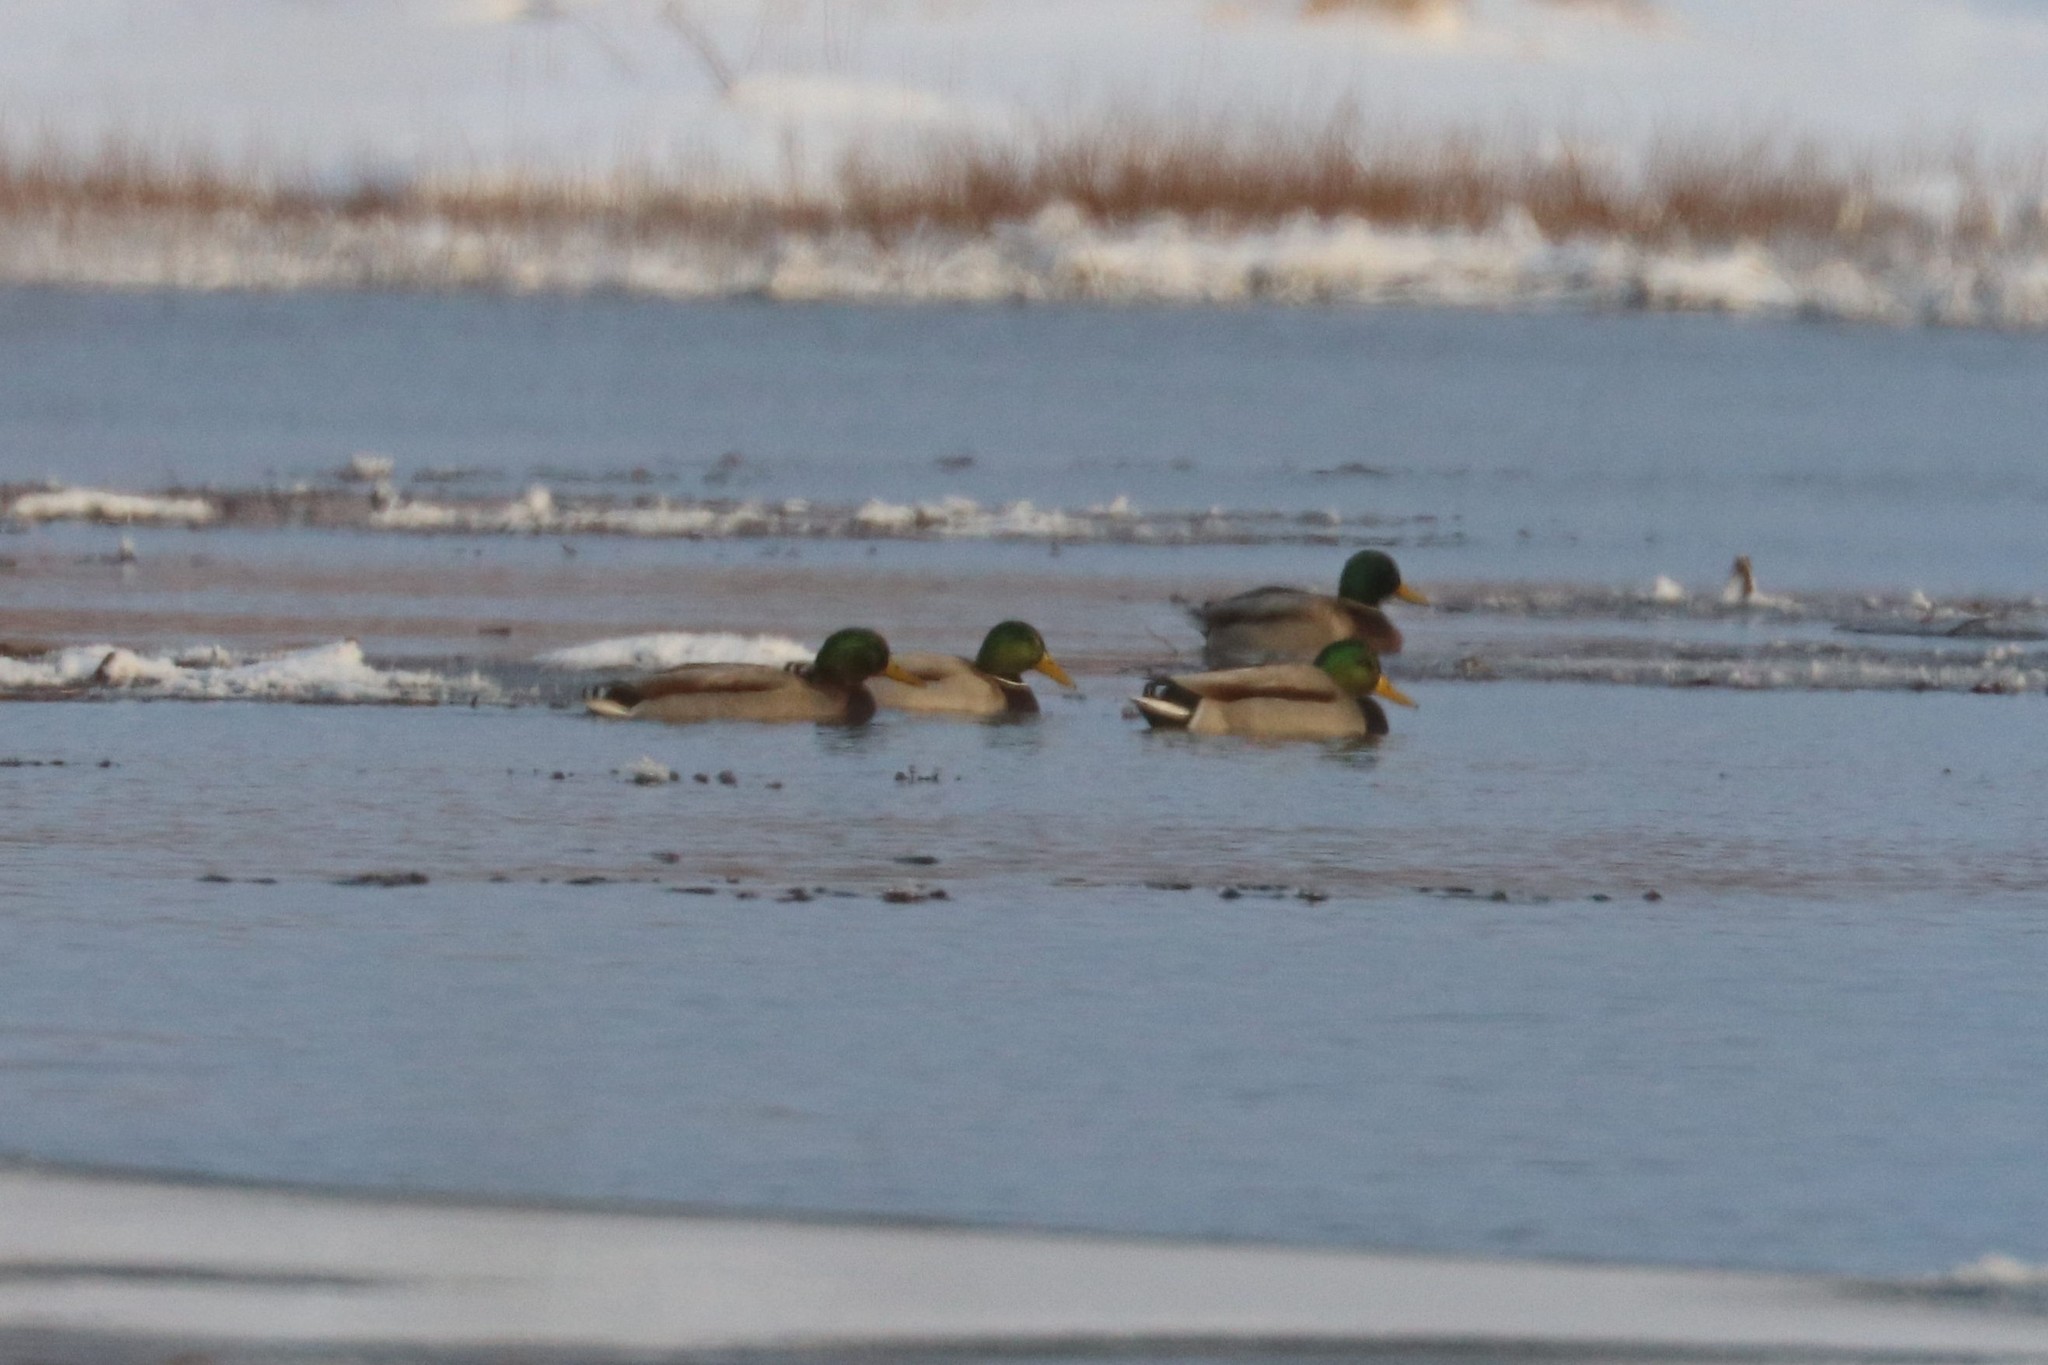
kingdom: Animalia
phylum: Chordata
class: Aves
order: Anseriformes
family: Anatidae
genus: Anas
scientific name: Anas platyrhynchos
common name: Mallard
